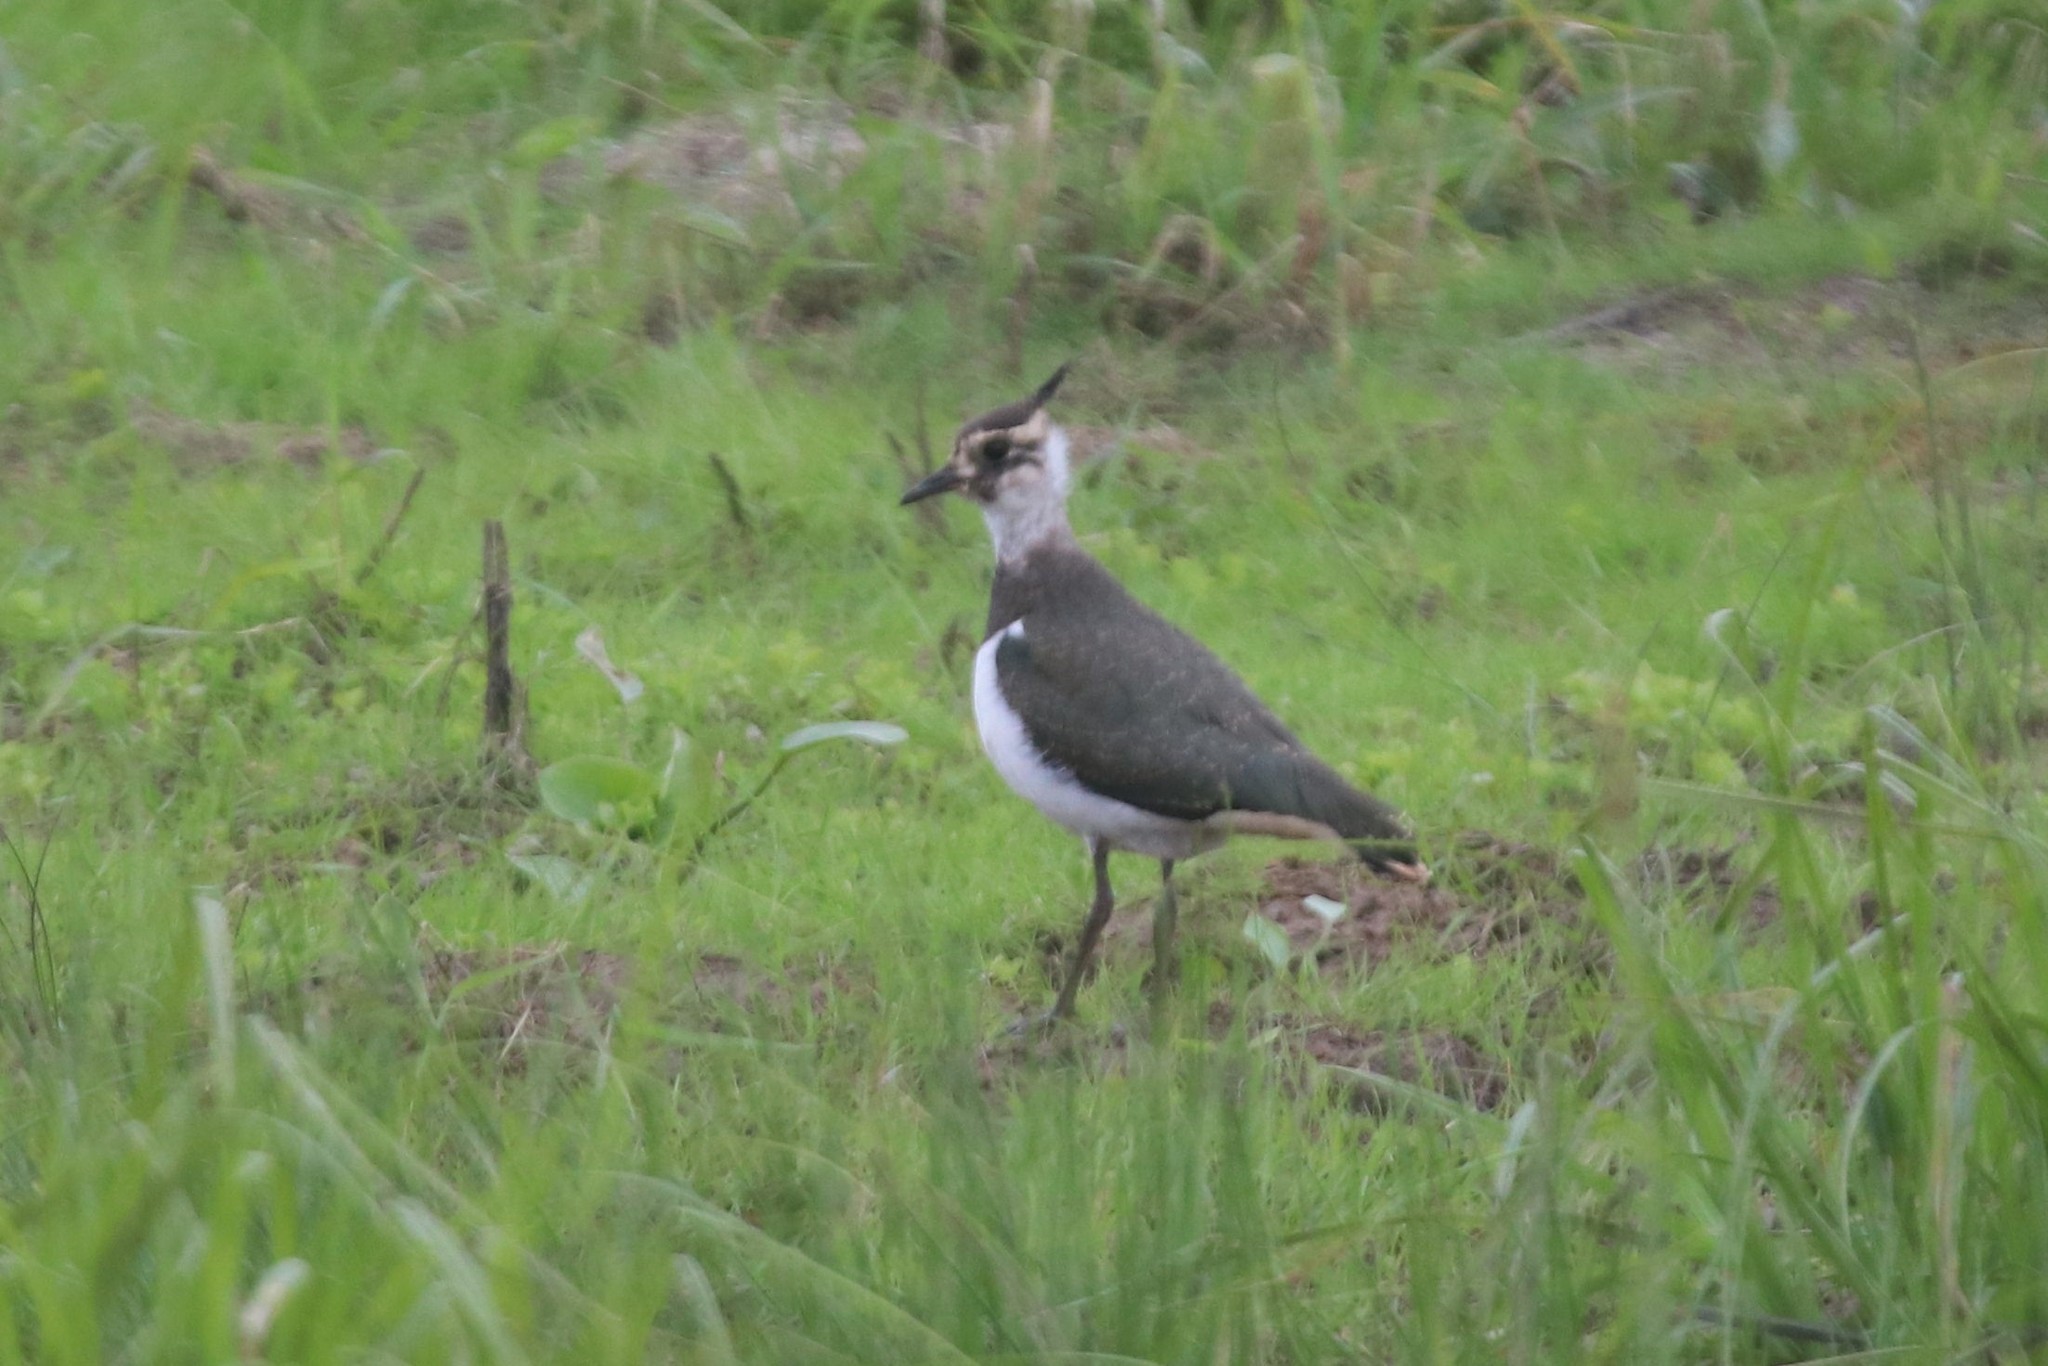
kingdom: Animalia
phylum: Chordata
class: Aves
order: Charadriiformes
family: Charadriidae
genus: Vanellus
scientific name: Vanellus vanellus
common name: Northern lapwing
